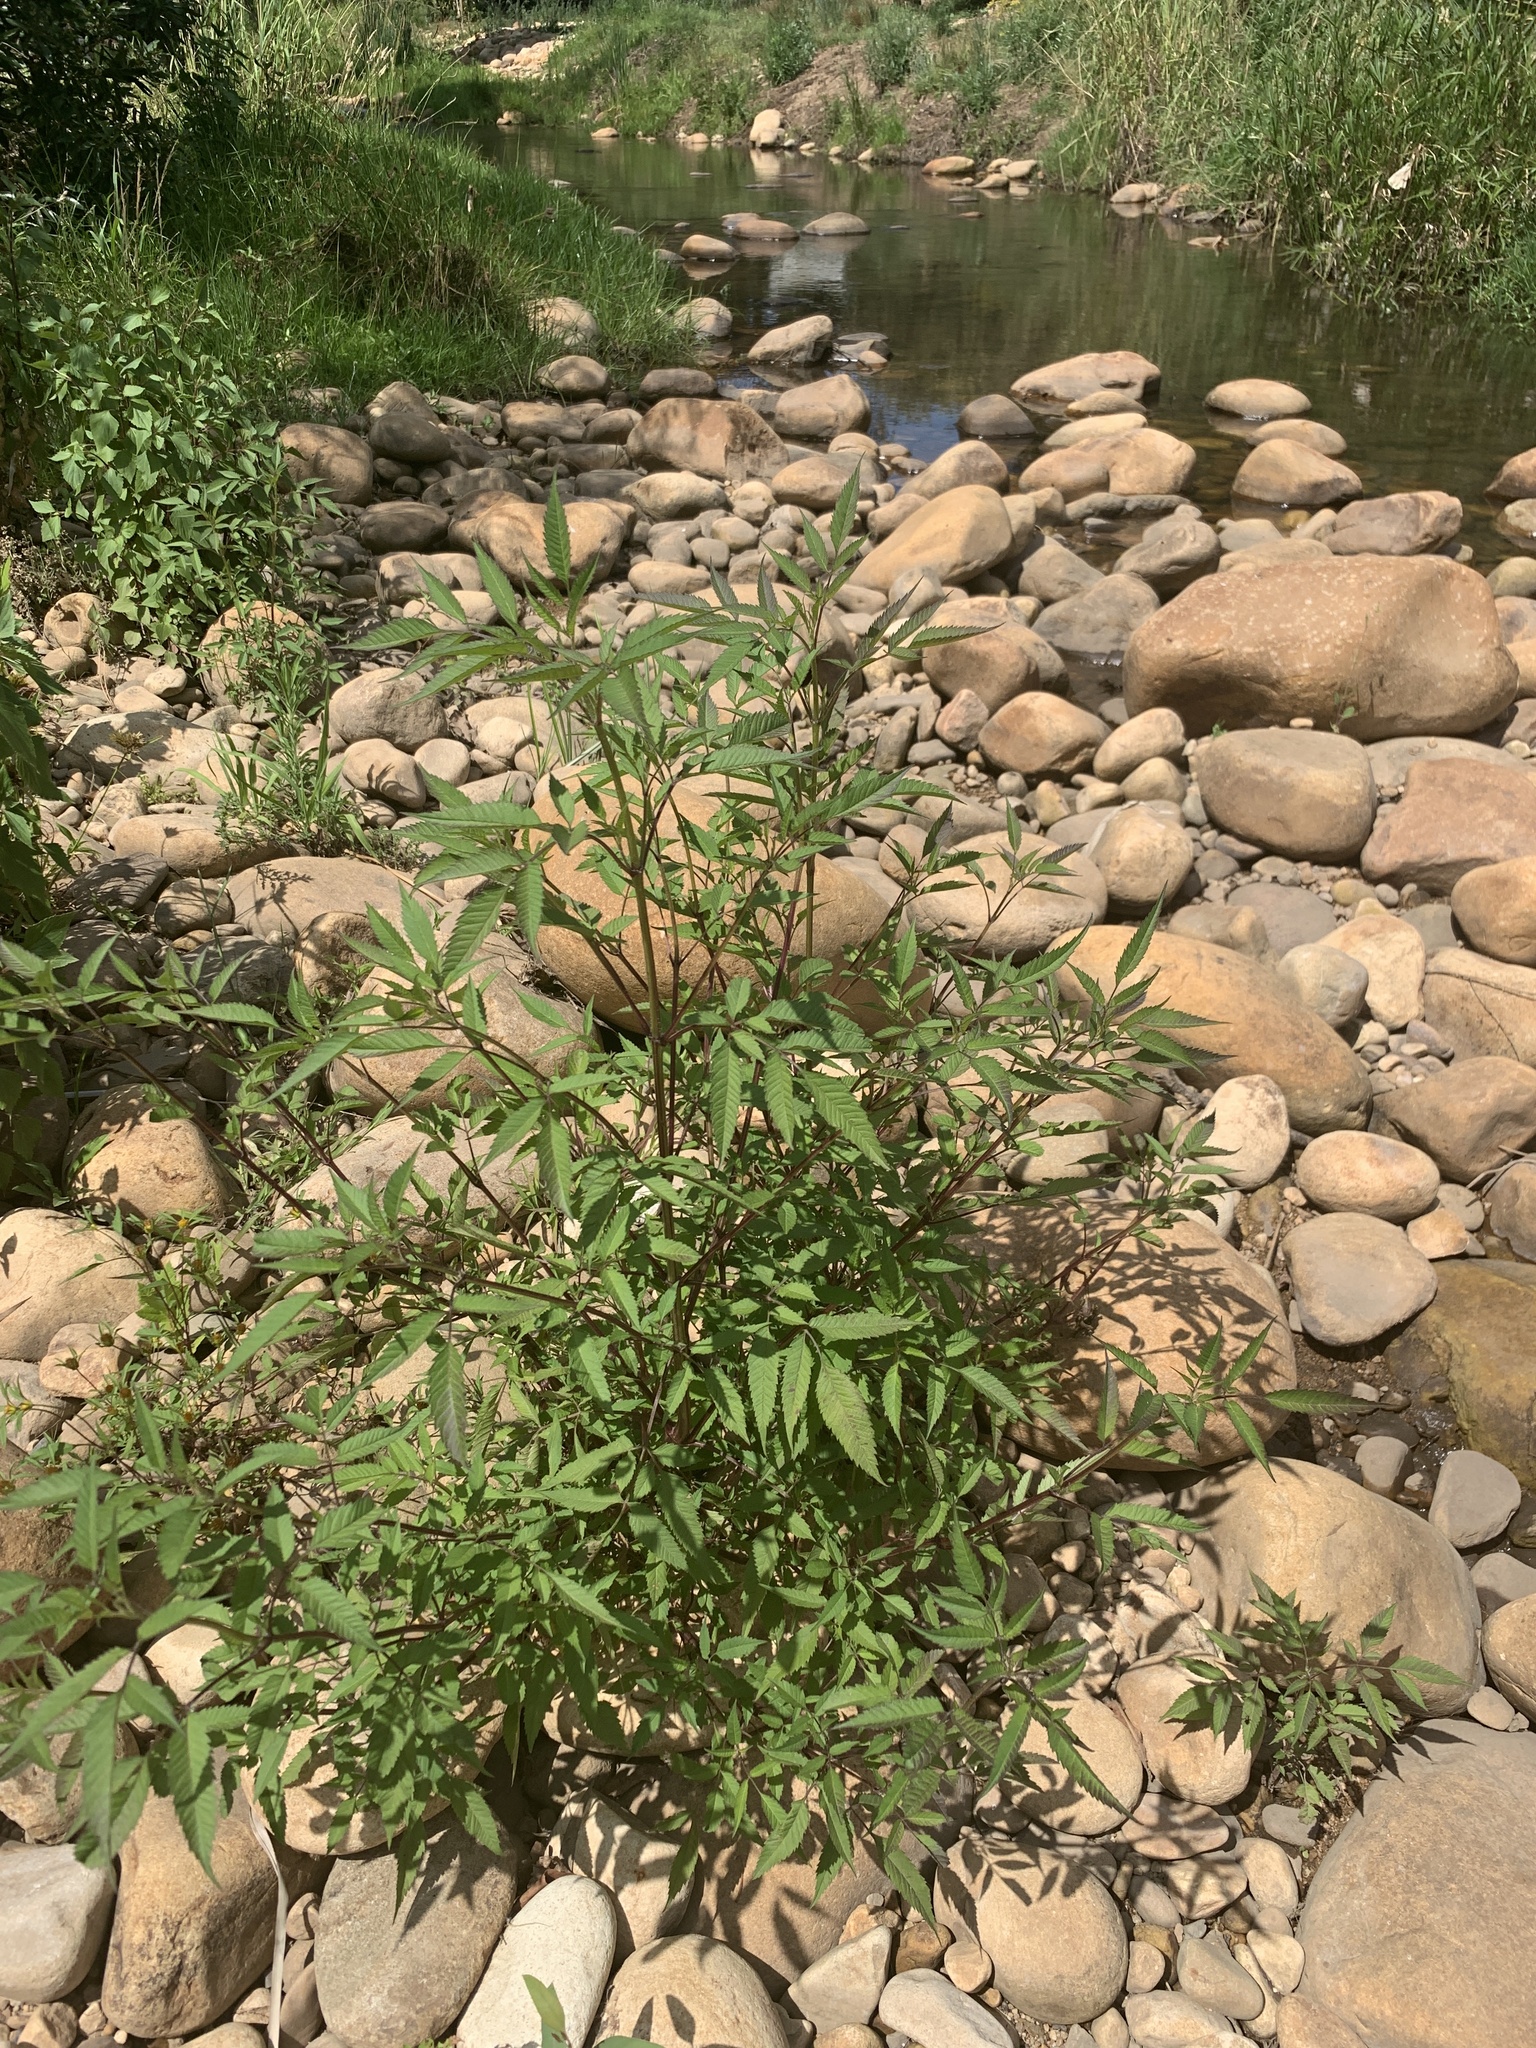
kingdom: Plantae
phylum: Tracheophyta
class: Magnoliopsida
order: Asterales
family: Asteraceae
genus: Bidens
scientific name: Bidens frondosa
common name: Beggarticks
